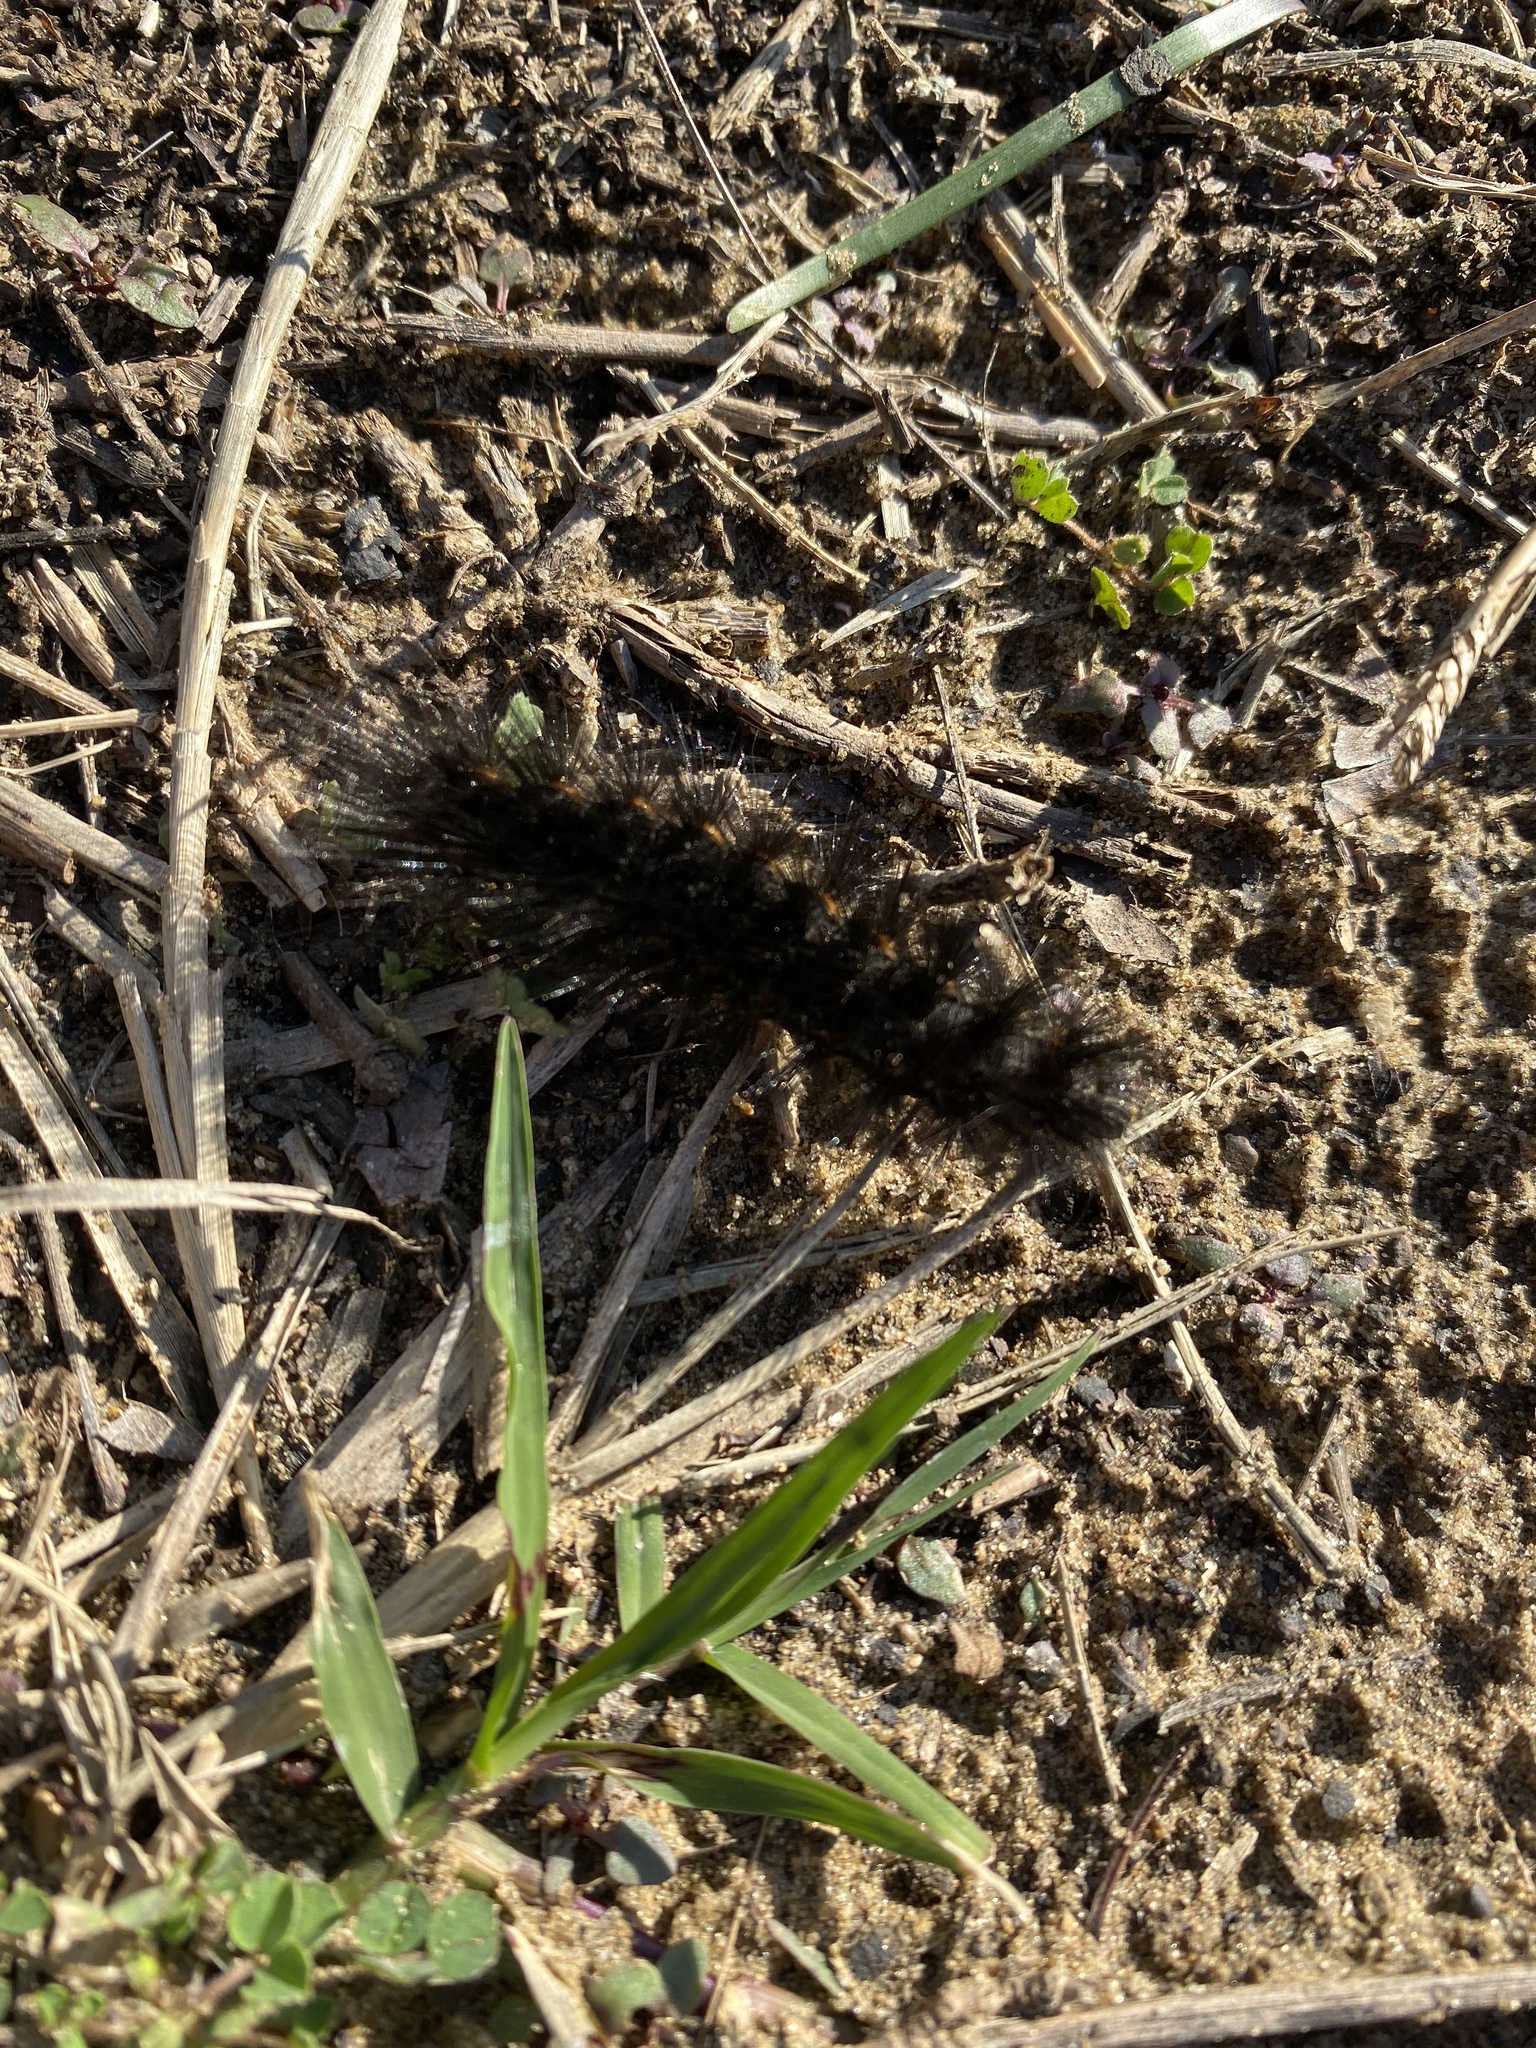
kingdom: Animalia
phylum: Arthropoda
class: Insecta
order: Lepidoptera
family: Erebidae
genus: Estigmene
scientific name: Estigmene acrea
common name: Salt marsh moth
